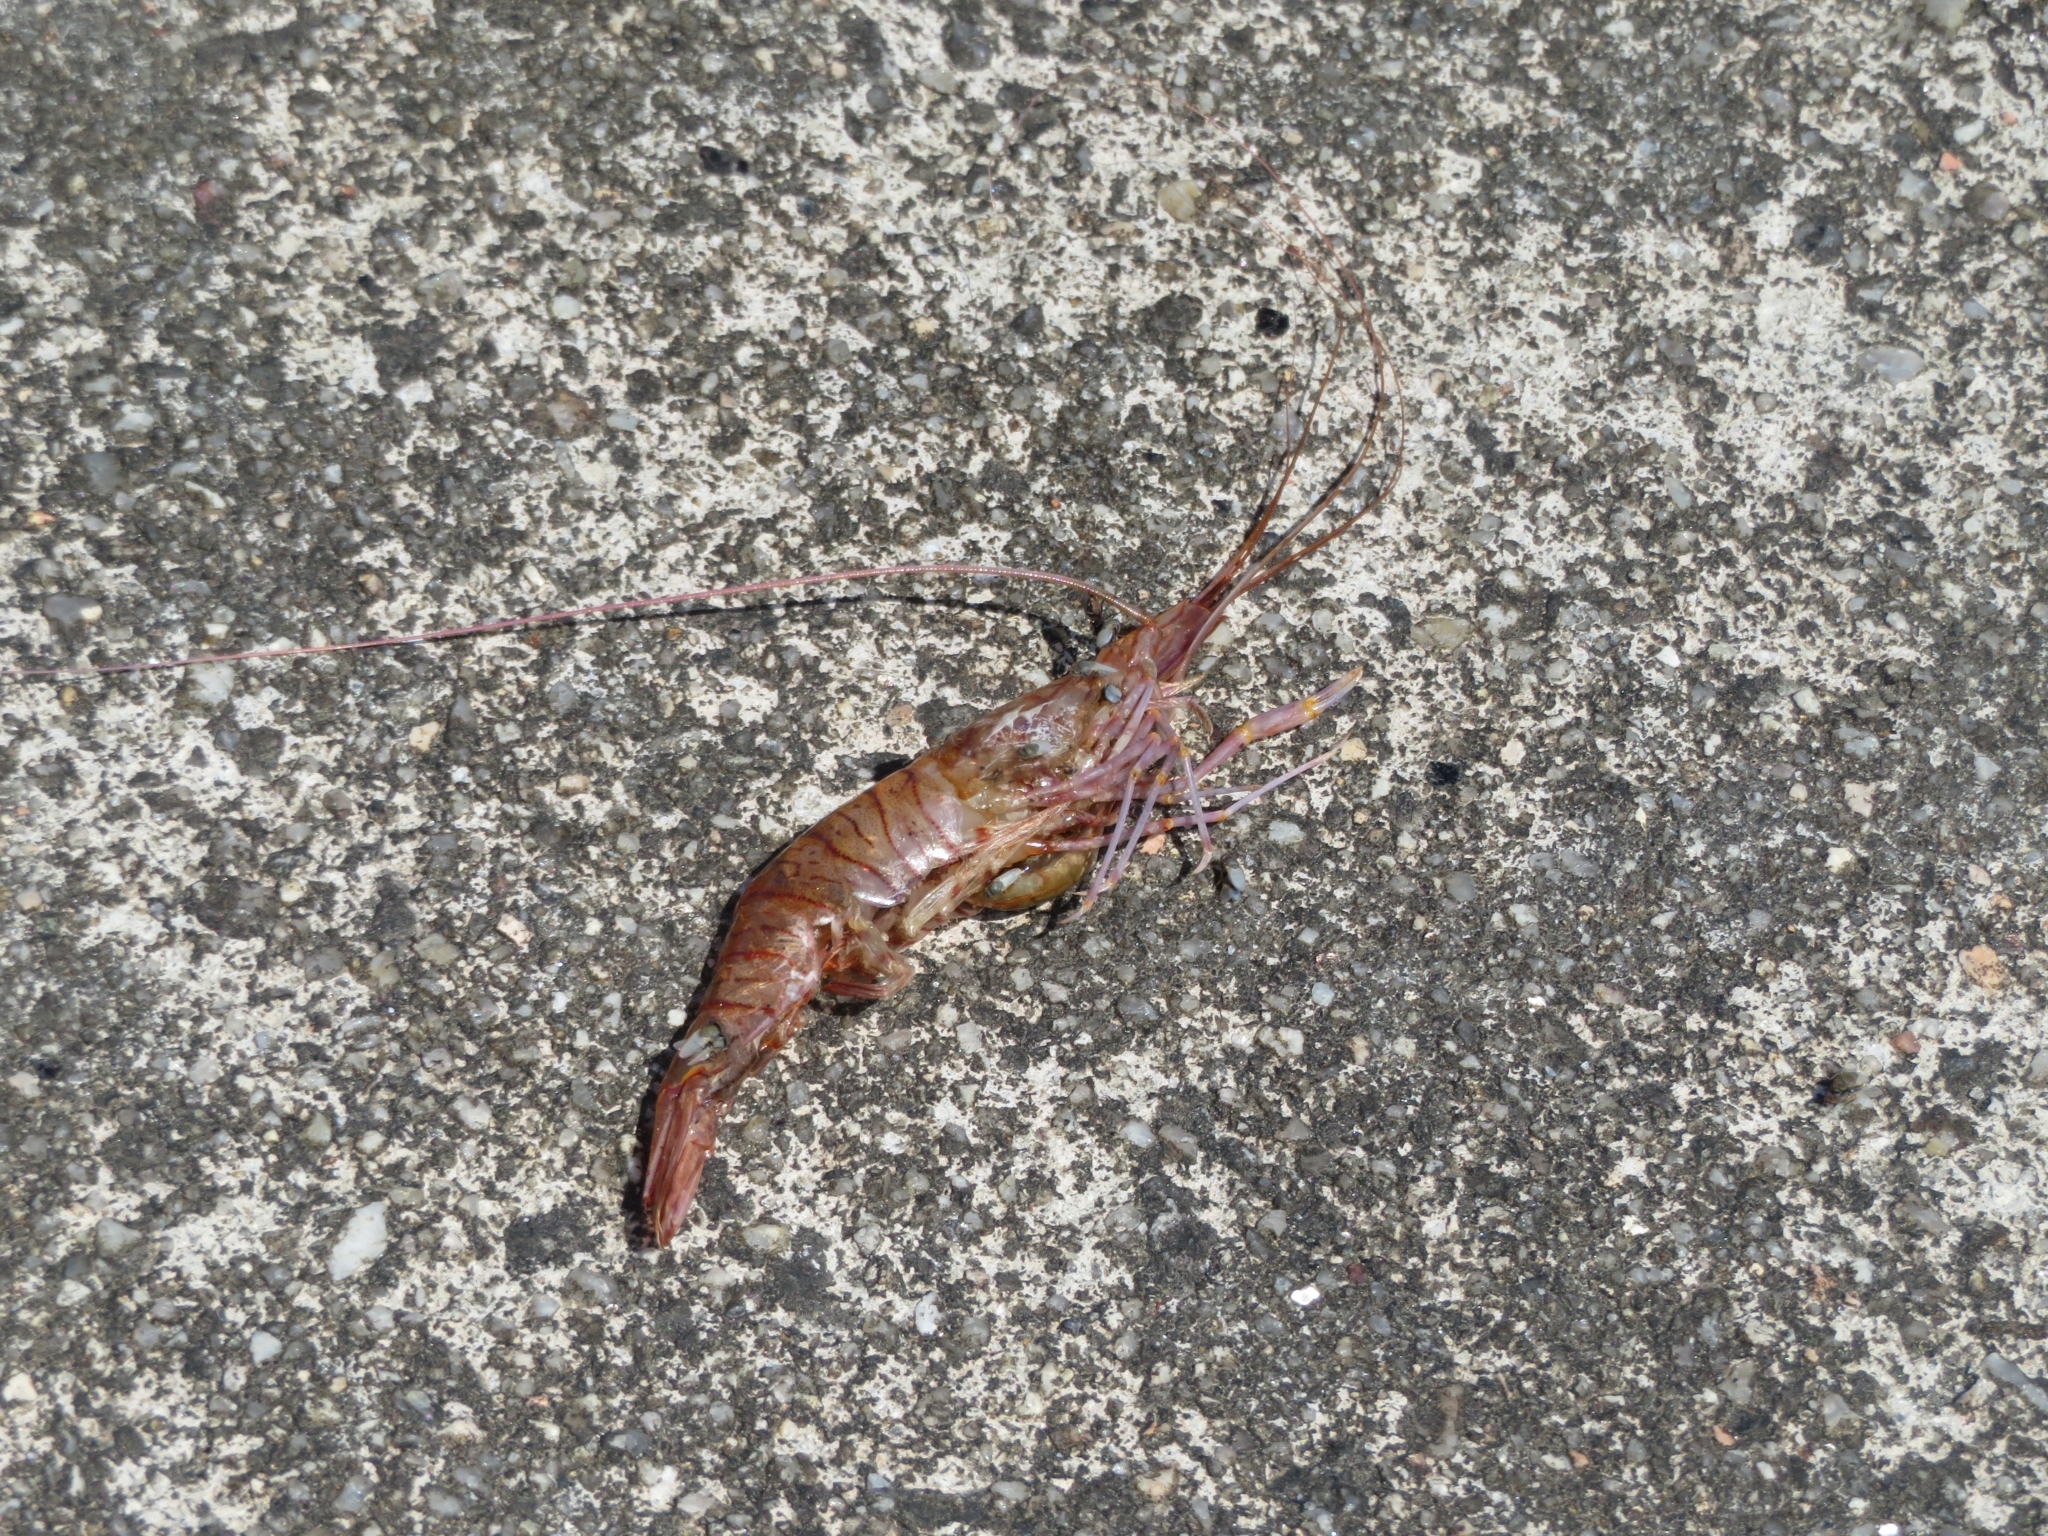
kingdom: Animalia
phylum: Arthropoda
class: Malacostraca
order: Decapoda
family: Palaemonidae
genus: Palaemon
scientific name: Palaemon serratus
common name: Common prawn
